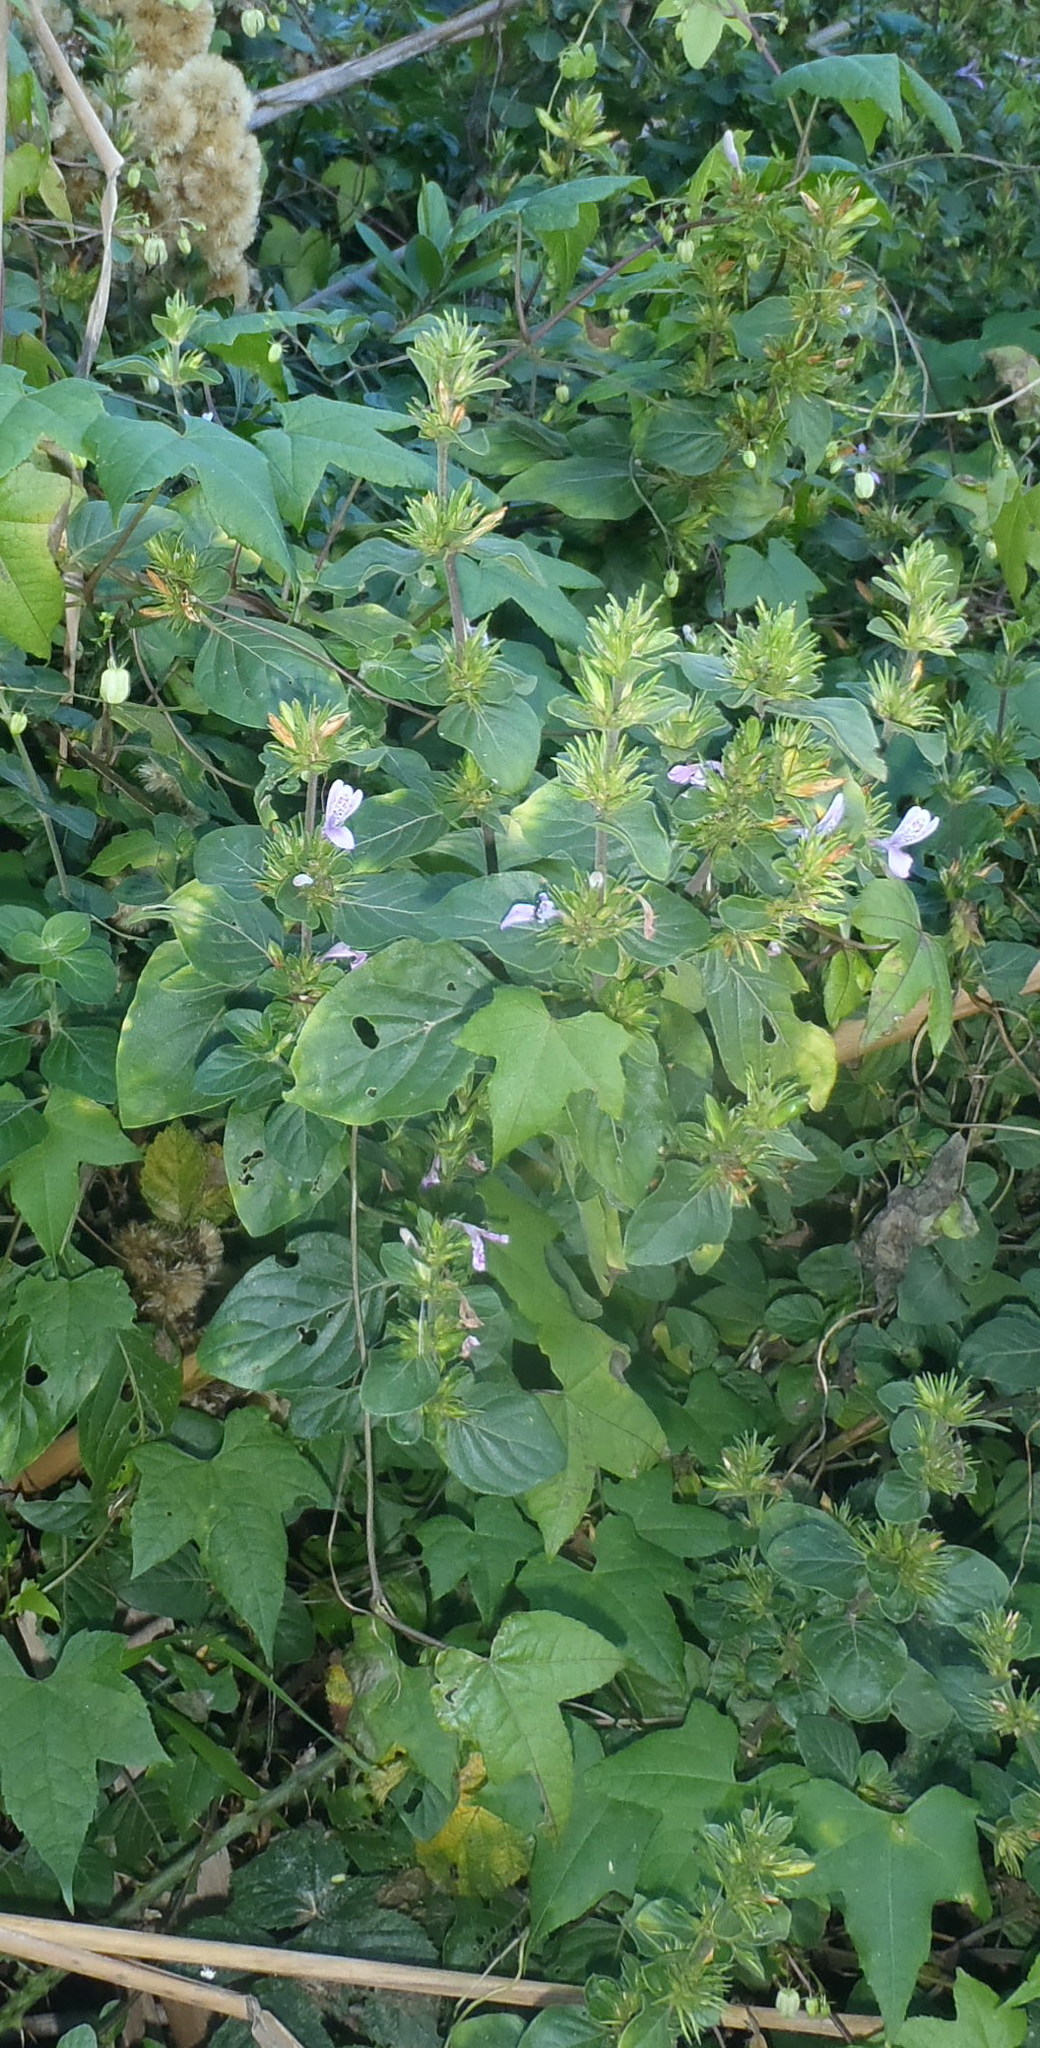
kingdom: Plantae
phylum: Tracheophyta
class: Magnoliopsida
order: Lamiales
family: Acanthaceae
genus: Hypoestes
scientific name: Hypoestes aristata
